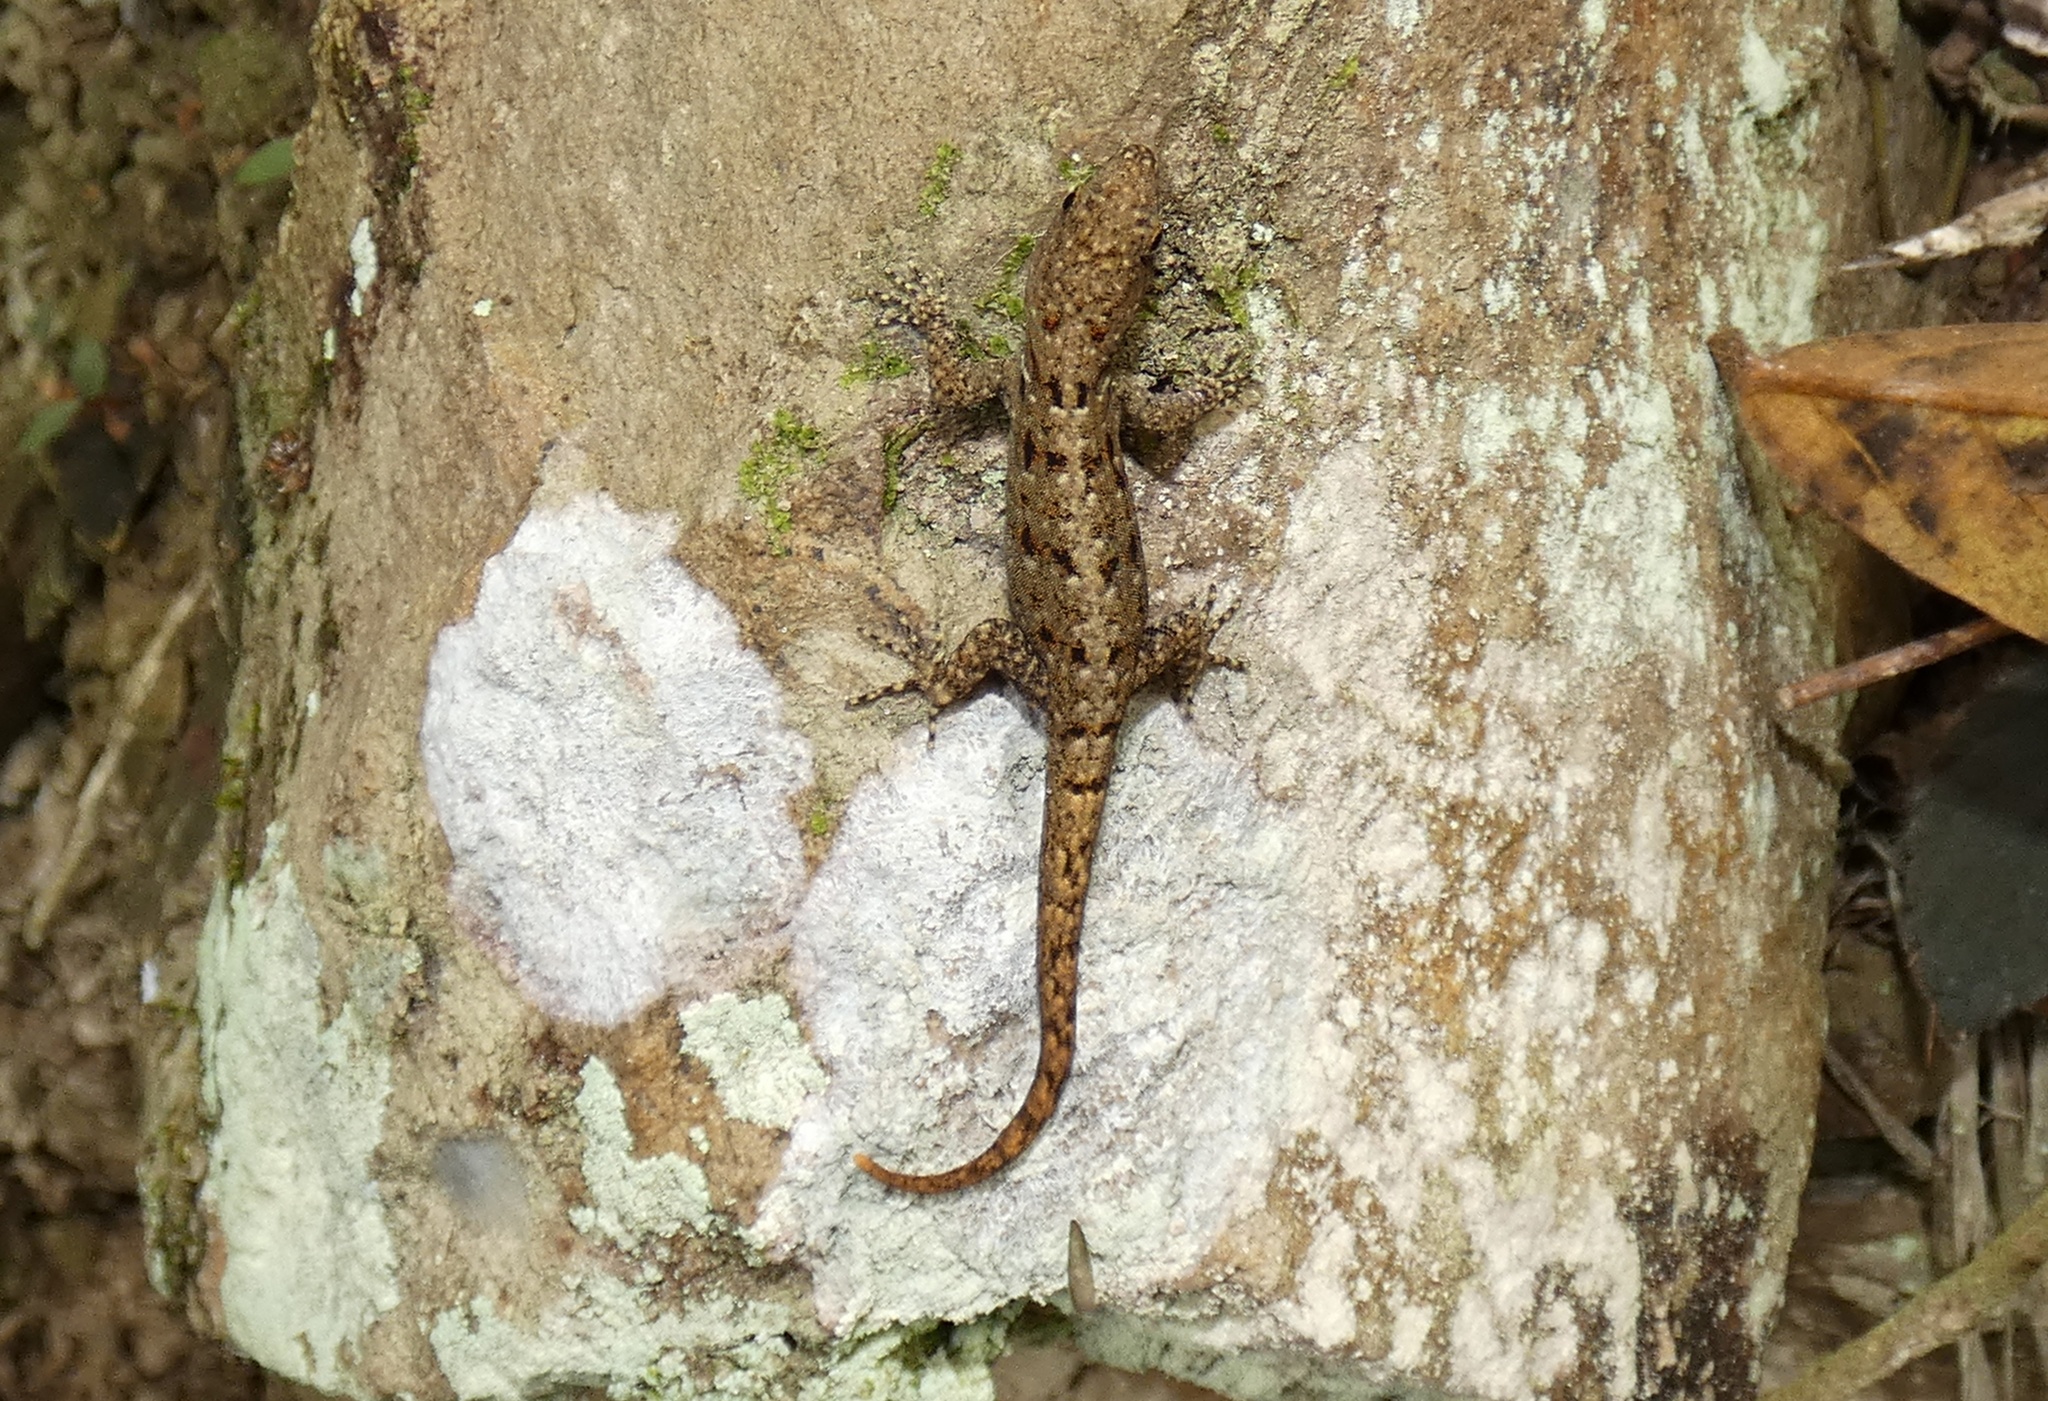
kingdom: Animalia
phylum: Chordata
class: Squamata
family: Sphaerodactylidae
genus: Gonatodes
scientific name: Gonatodes albogularis
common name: Yellow-headed gecko
